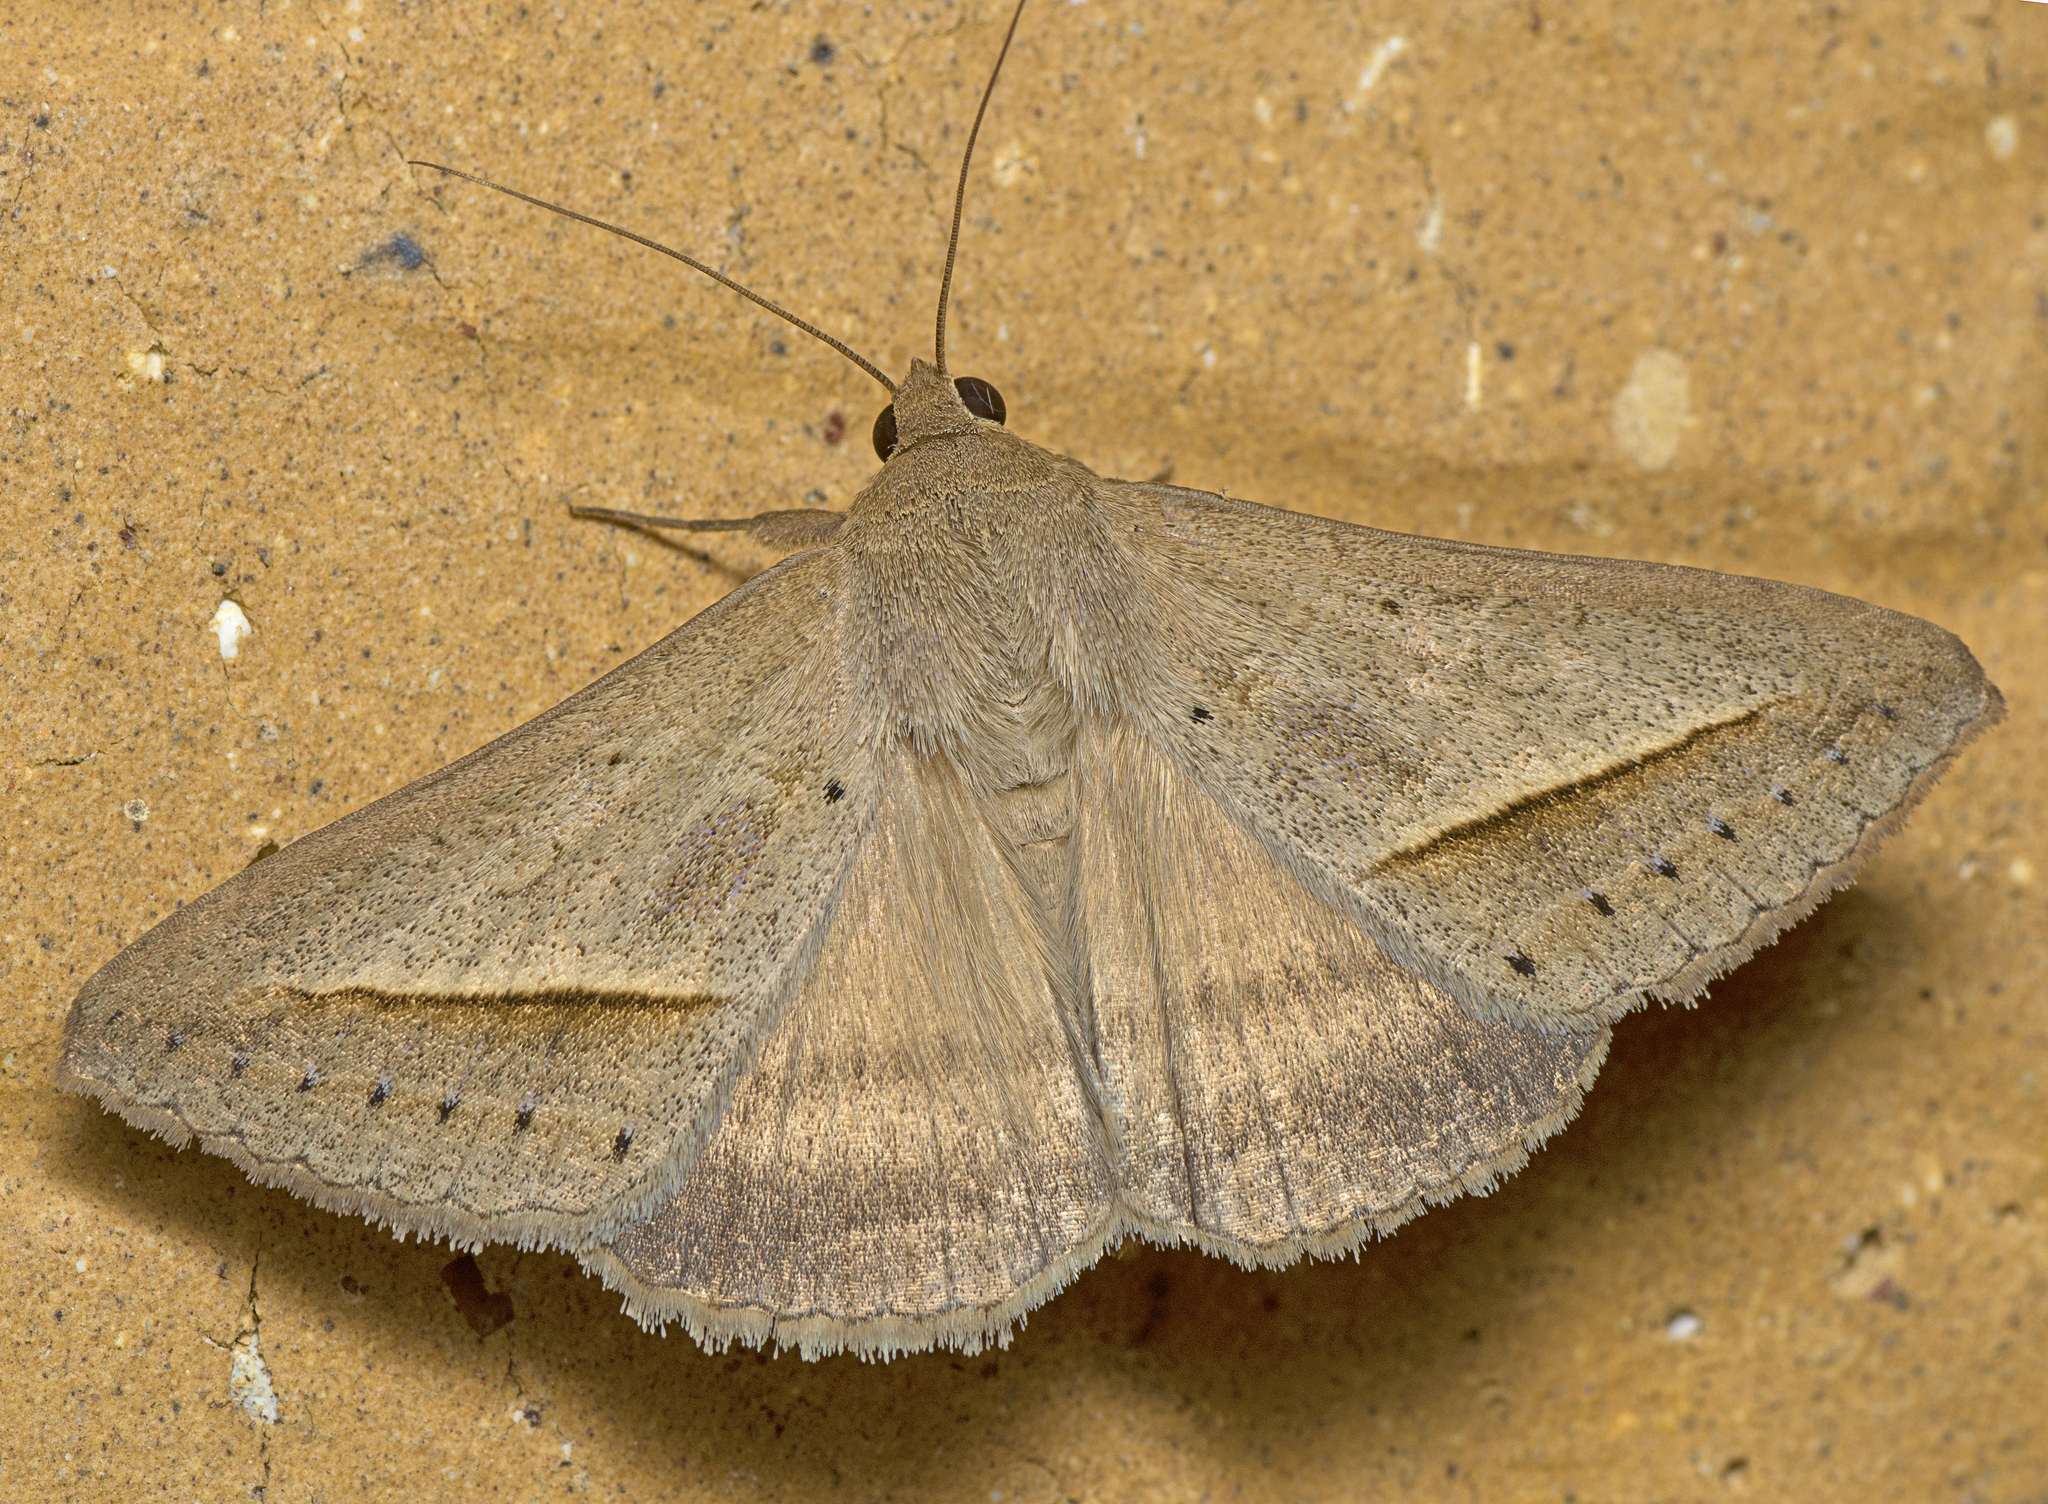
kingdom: Animalia
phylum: Arthropoda
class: Insecta
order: Lepidoptera
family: Erebidae
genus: Mocis
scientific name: Mocis frugalis
